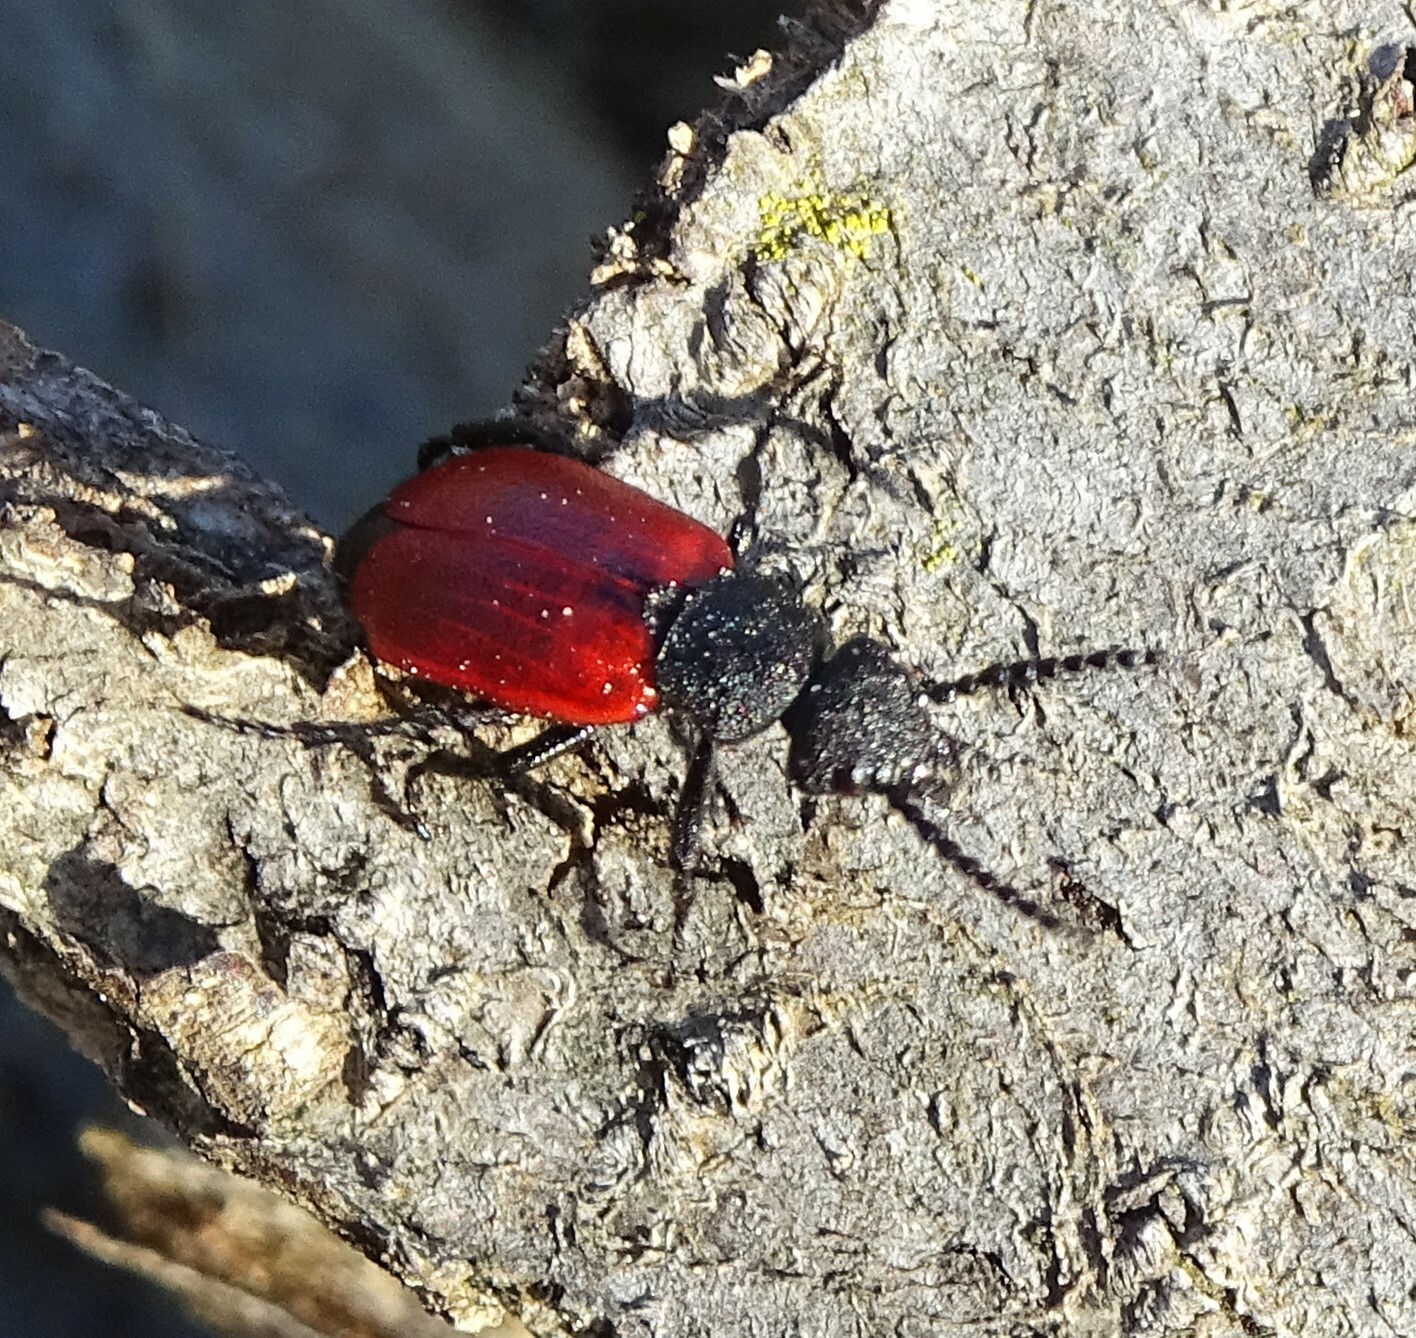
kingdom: Animalia
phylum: Arthropoda
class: Insecta
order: Coleoptera
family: Meloidae
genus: Tricrania
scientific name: Tricrania sanguinipennis
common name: Blood-winged blister beetle
